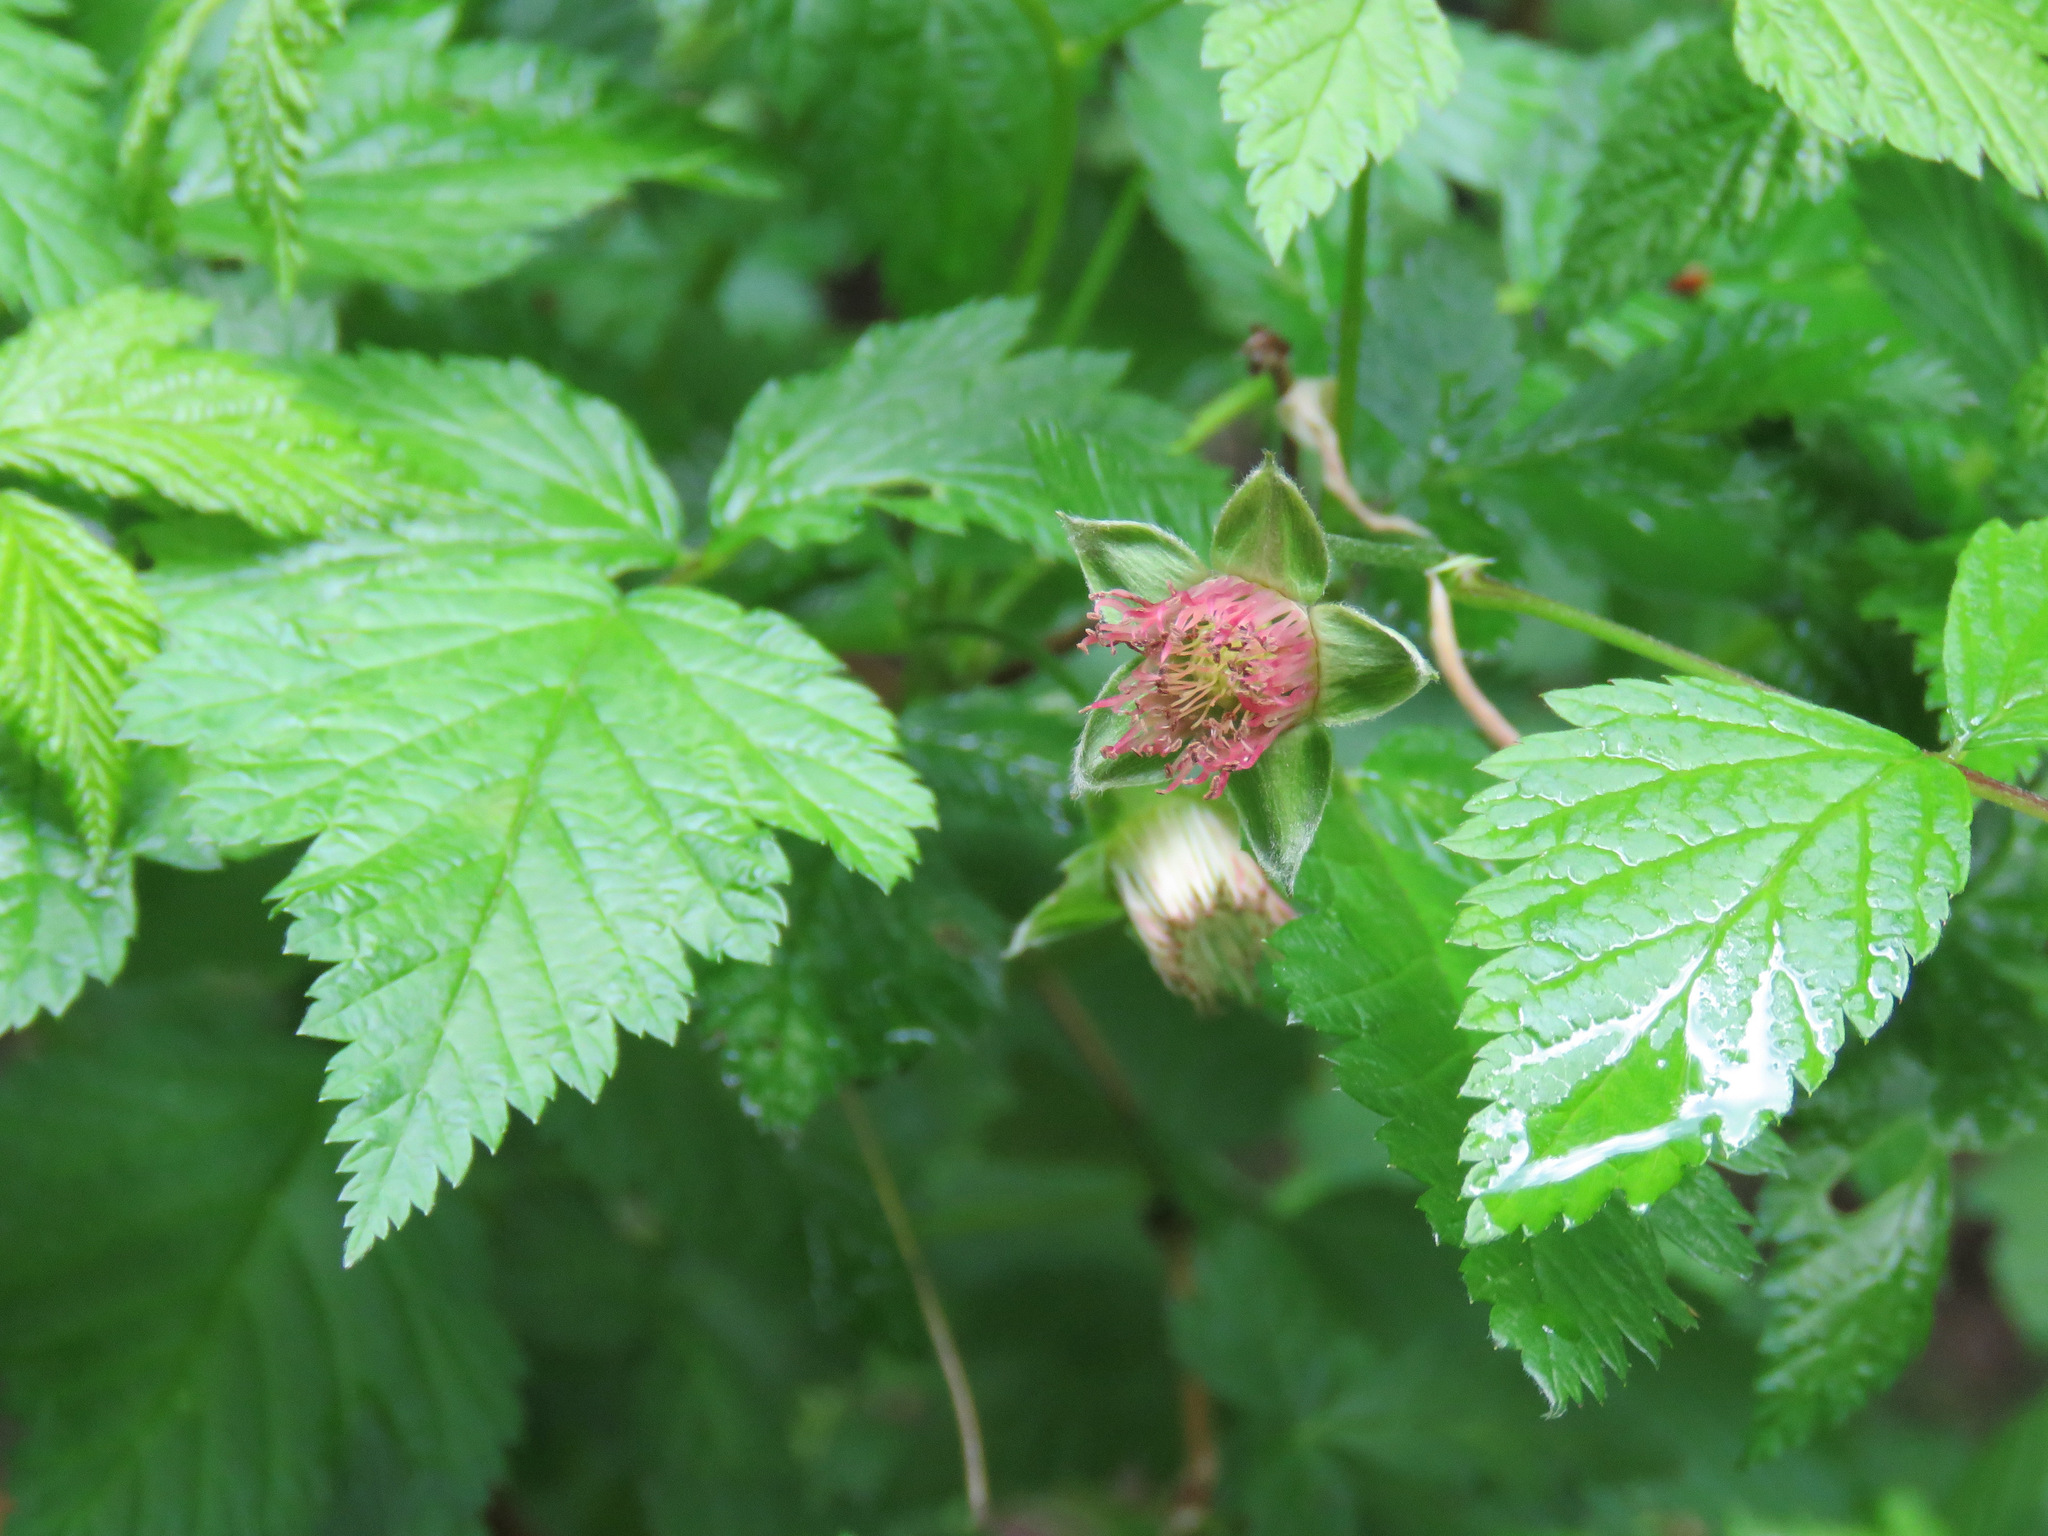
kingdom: Plantae
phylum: Tracheophyta
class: Magnoliopsida
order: Rosales
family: Rosaceae
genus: Rubus
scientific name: Rubus spectabilis
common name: Salmonberry
